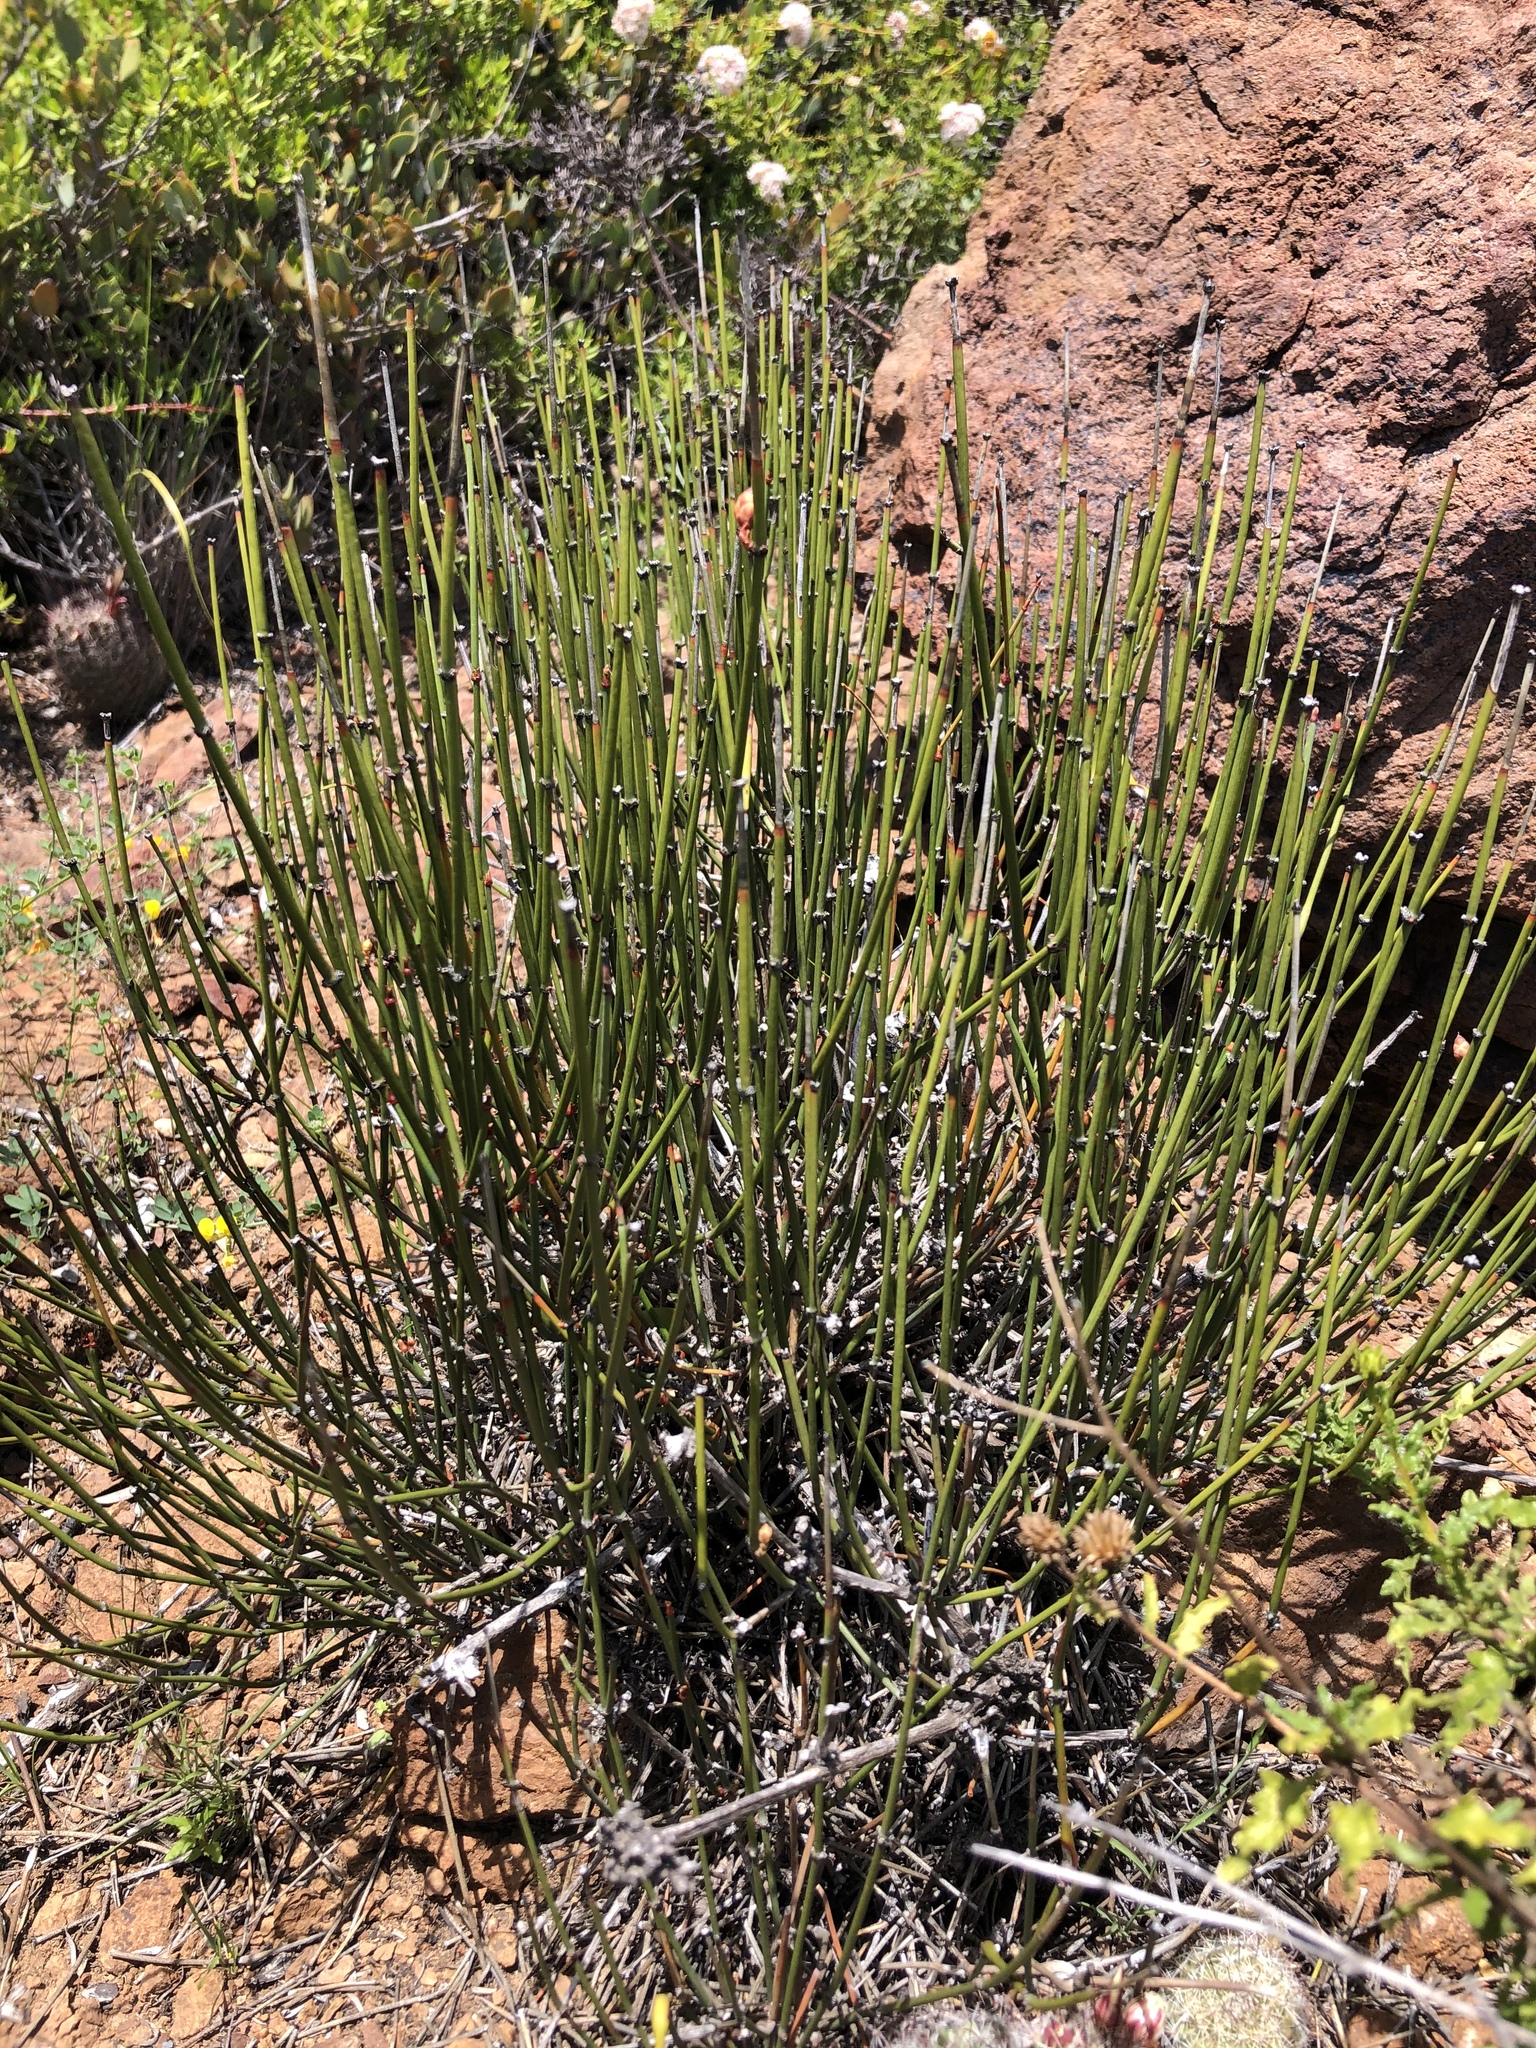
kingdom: Plantae
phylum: Tracheophyta
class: Gnetopsida
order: Ephedrales
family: Ephedraceae
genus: Ephedra
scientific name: Ephedra californica
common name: California ephedra
